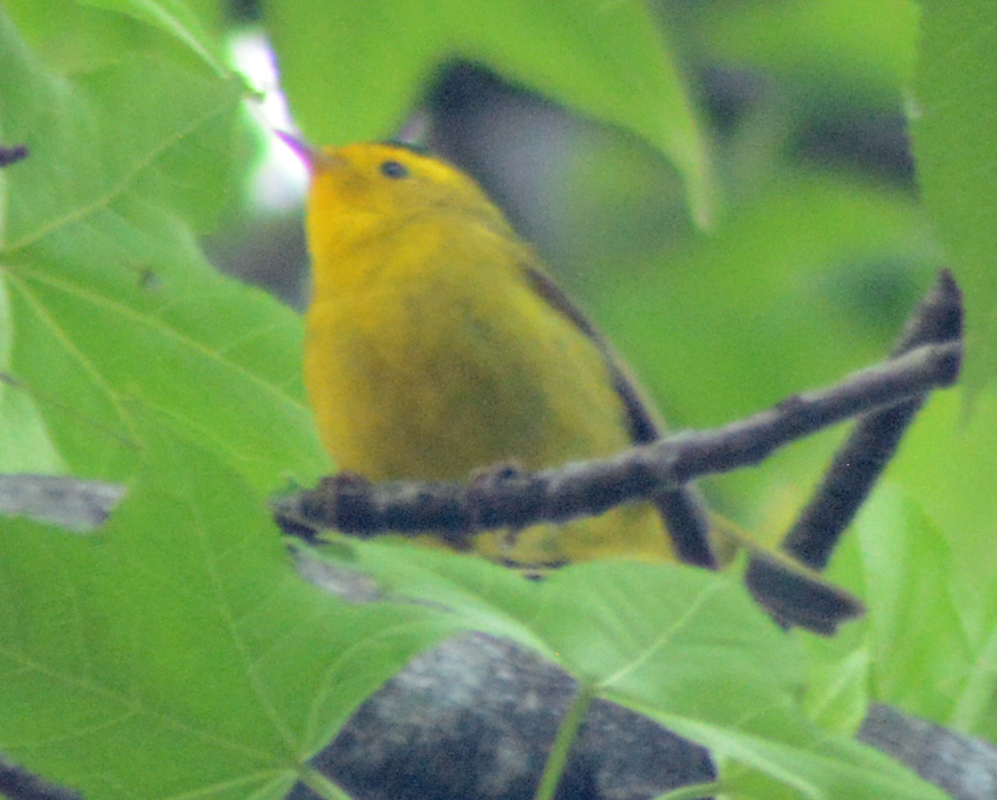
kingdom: Animalia
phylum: Chordata
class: Aves
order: Passeriformes
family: Parulidae
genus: Cardellina
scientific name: Cardellina pusilla
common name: Wilson's warbler
